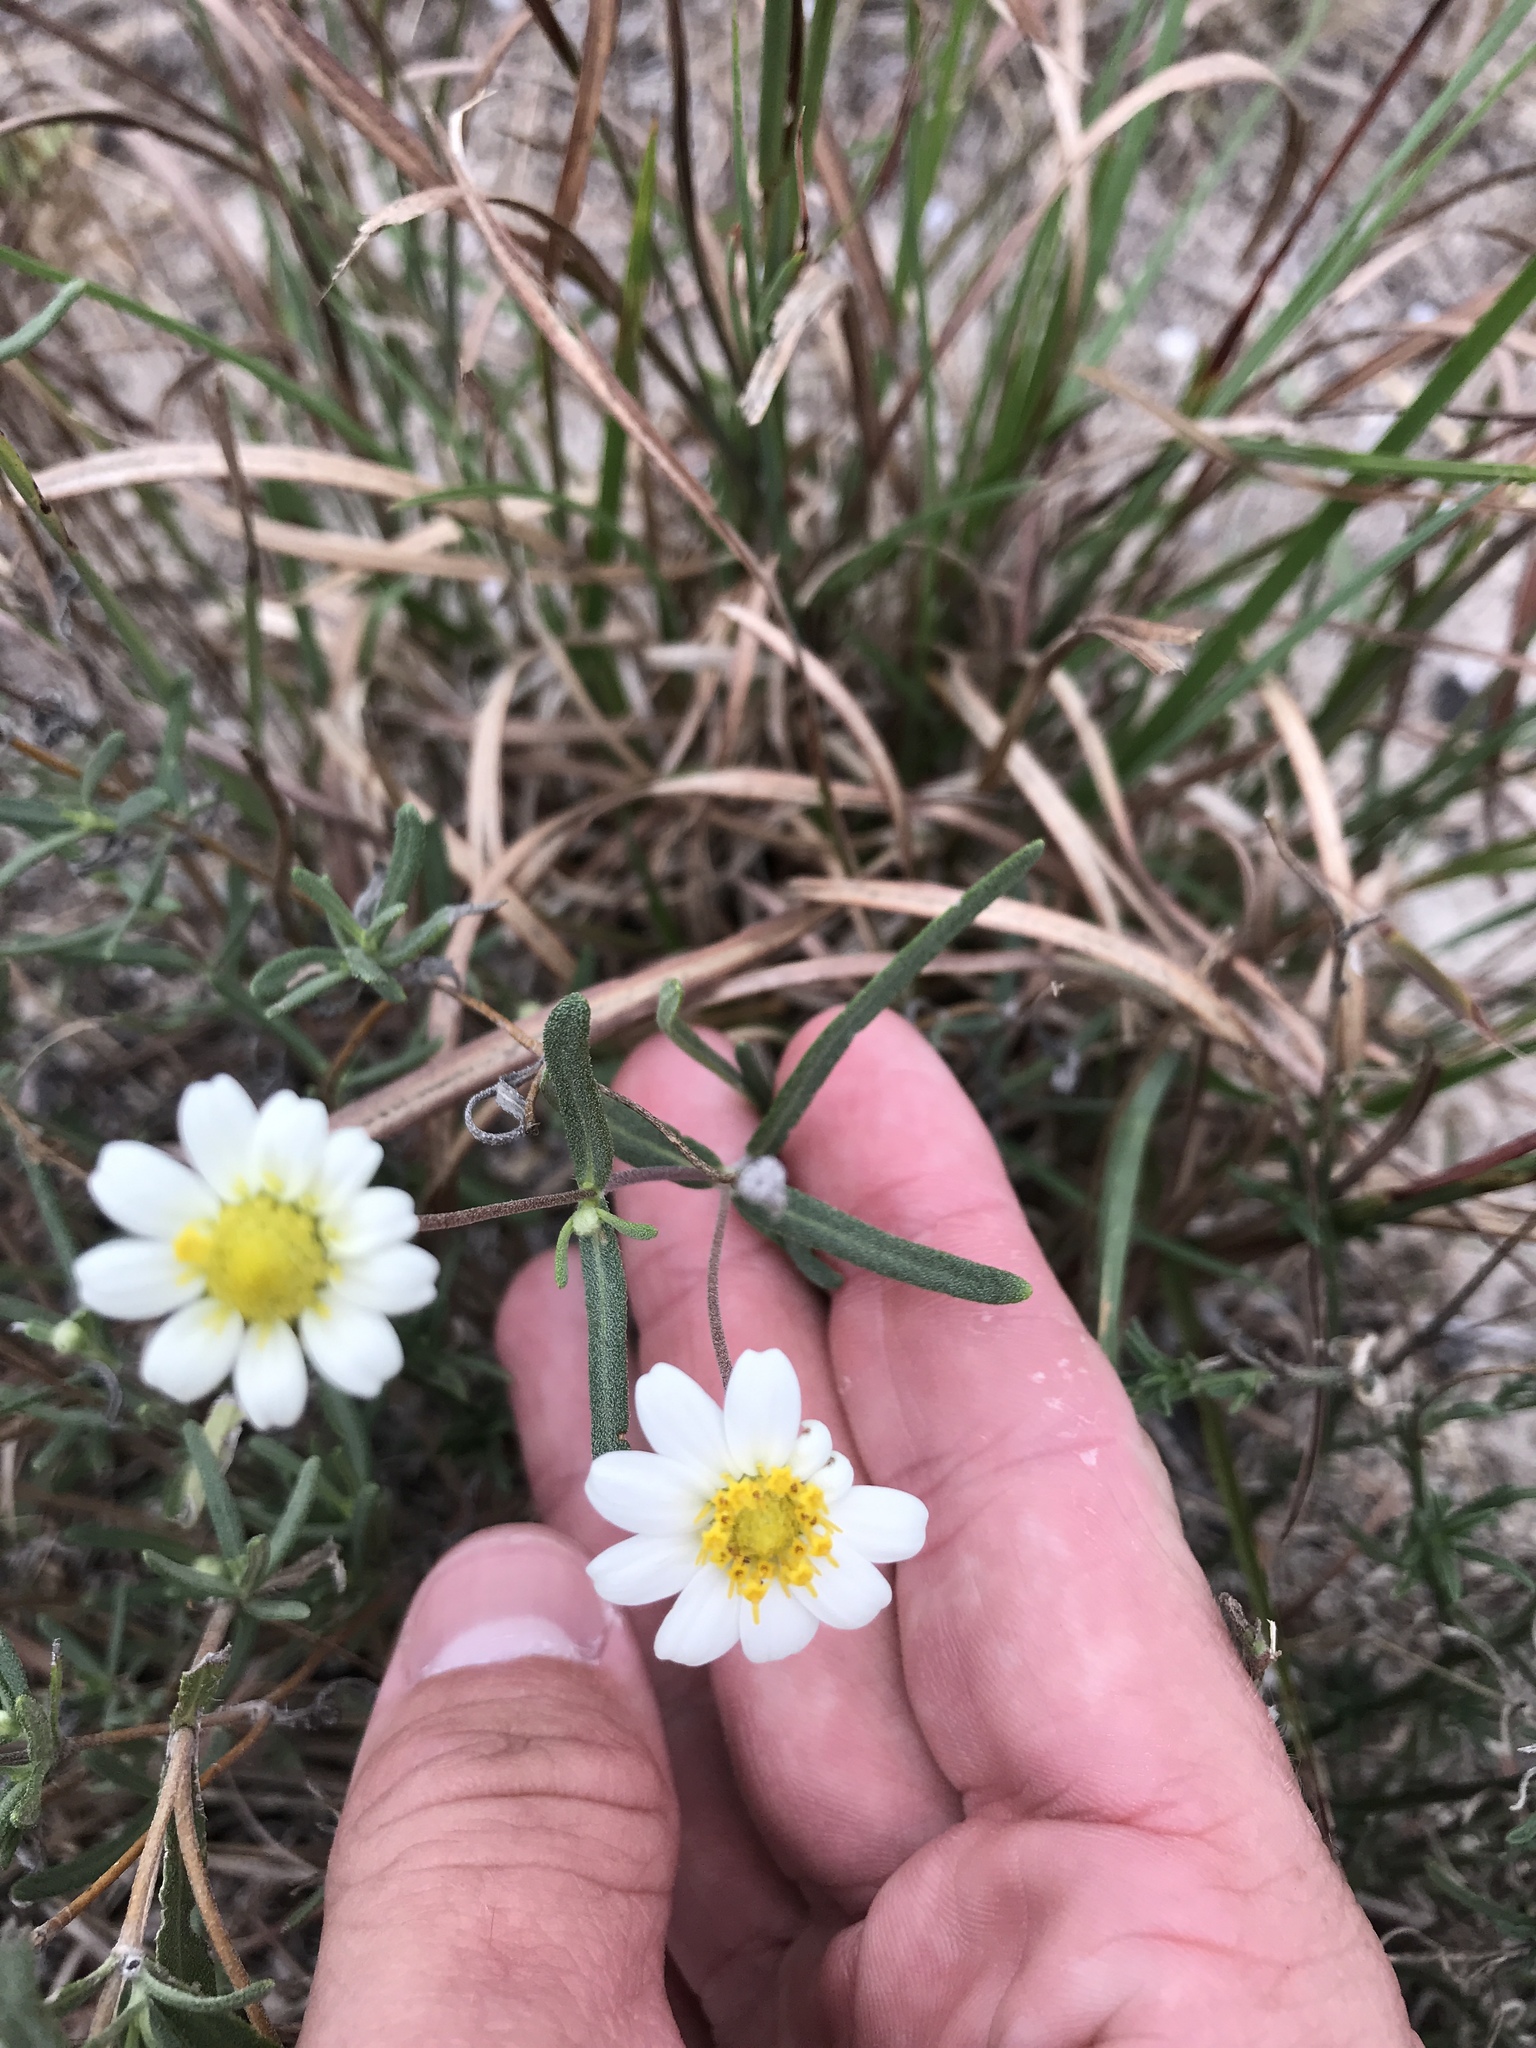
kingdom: Plantae
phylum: Tracheophyta
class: Magnoliopsida
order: Asterales
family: Asteraceae
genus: Melampodium
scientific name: Melampodium leucanthum
